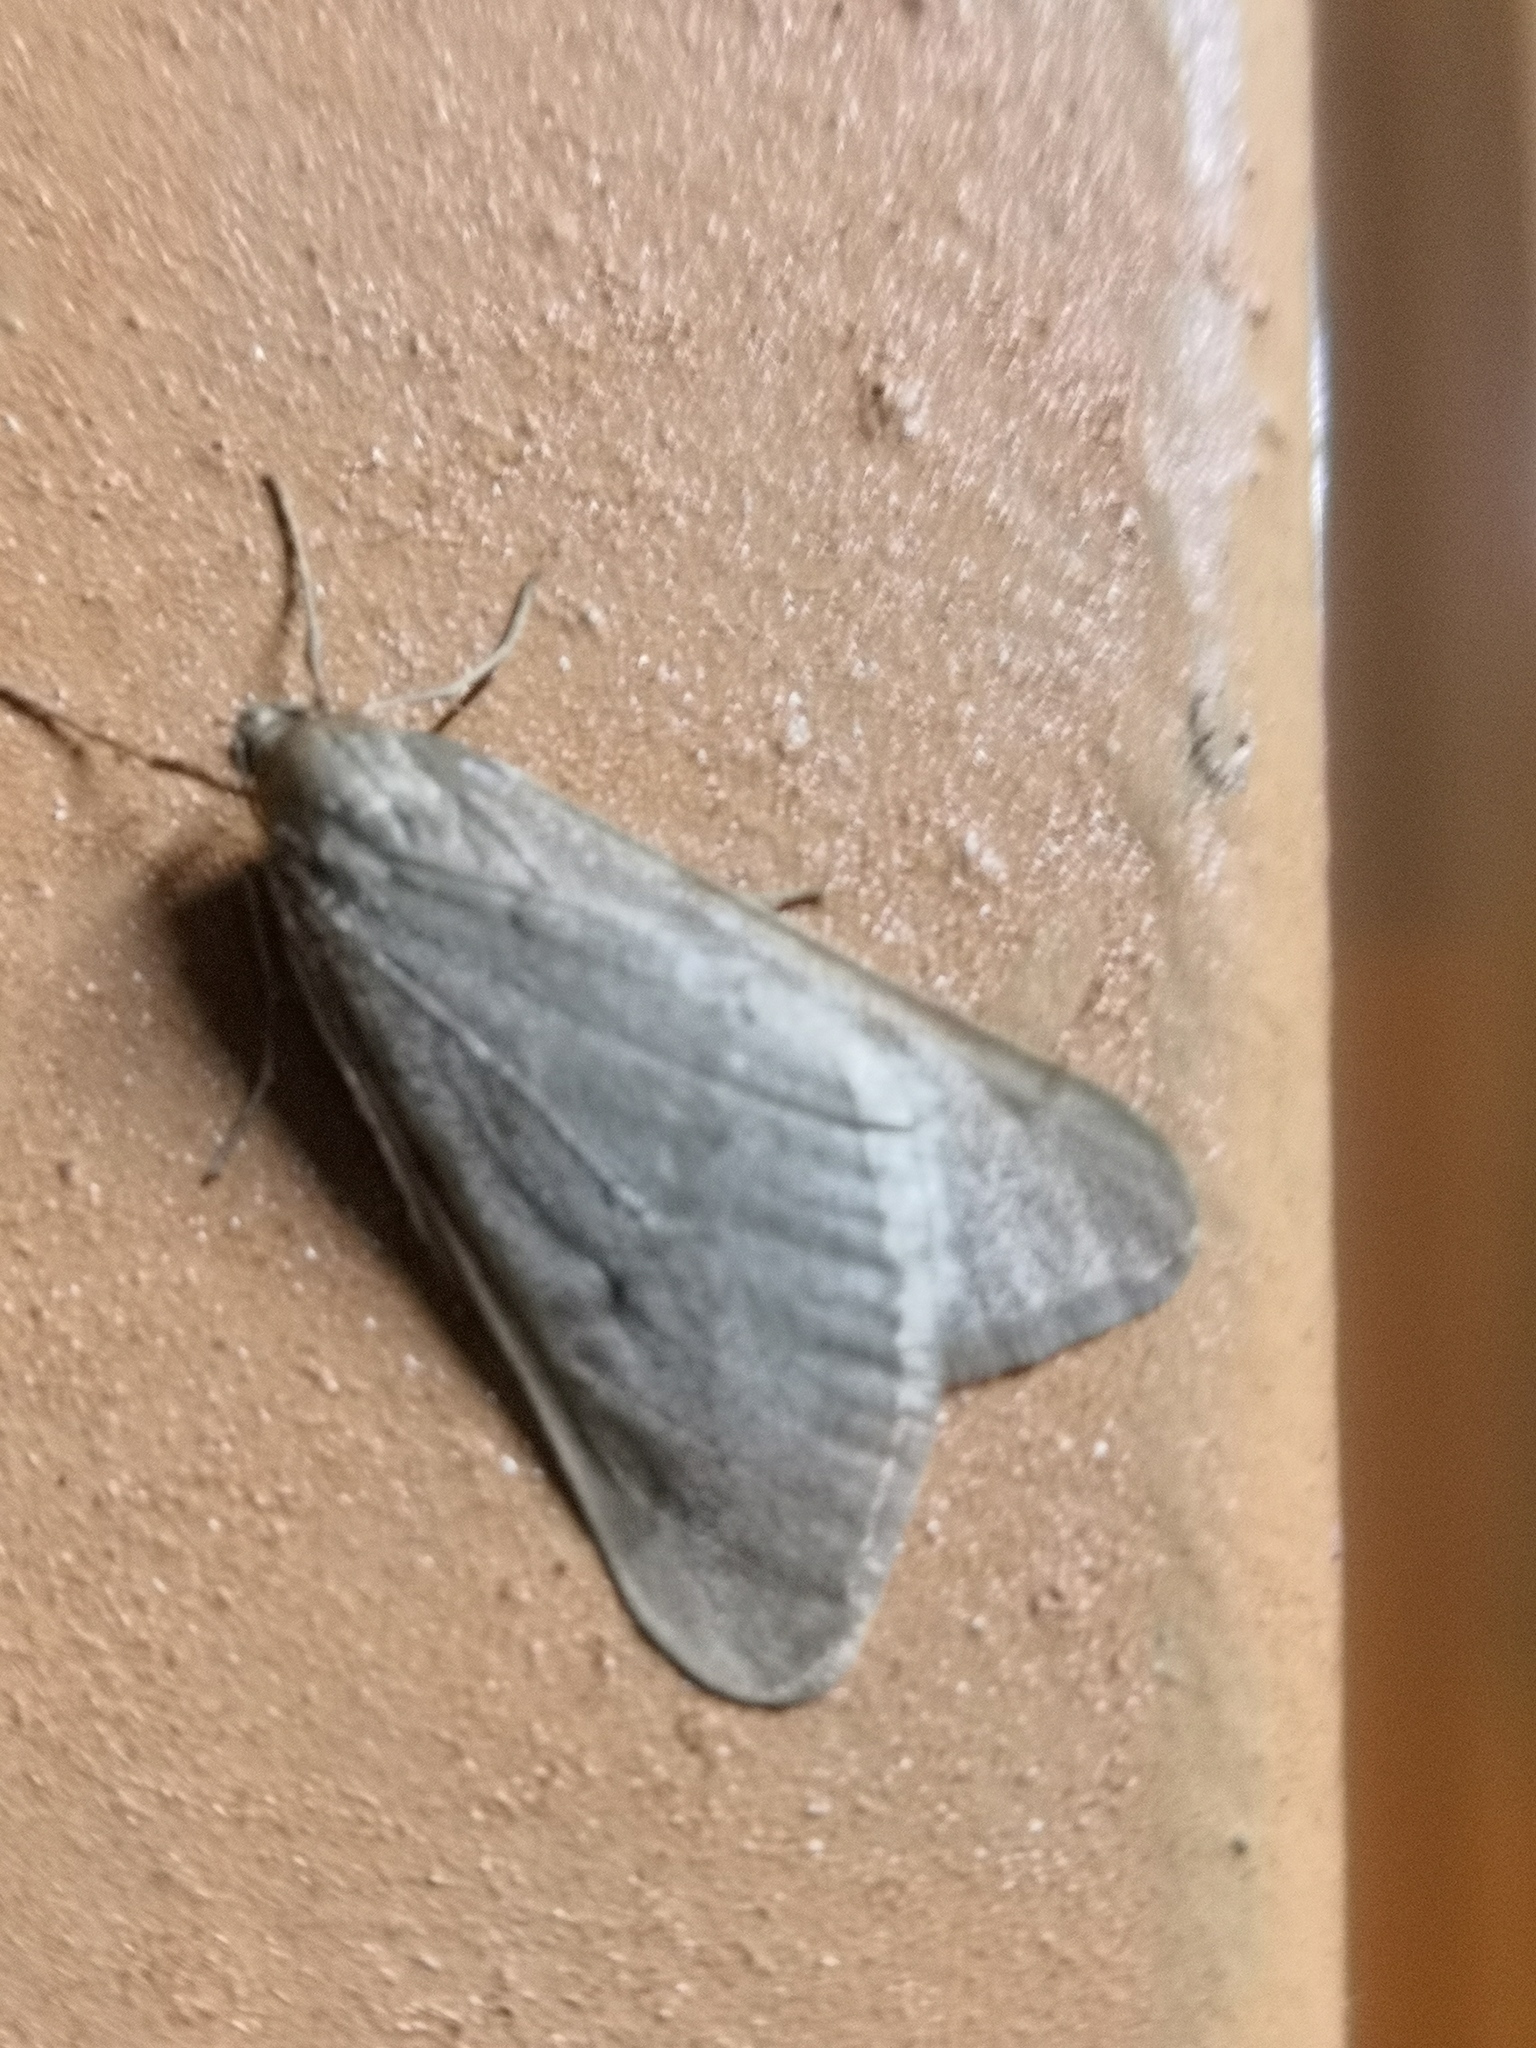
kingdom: Animalia
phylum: Arthropoda
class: Insecta
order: Lepidoptera
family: Geometridae
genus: Alsophila
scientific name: Alsophila aceraria
